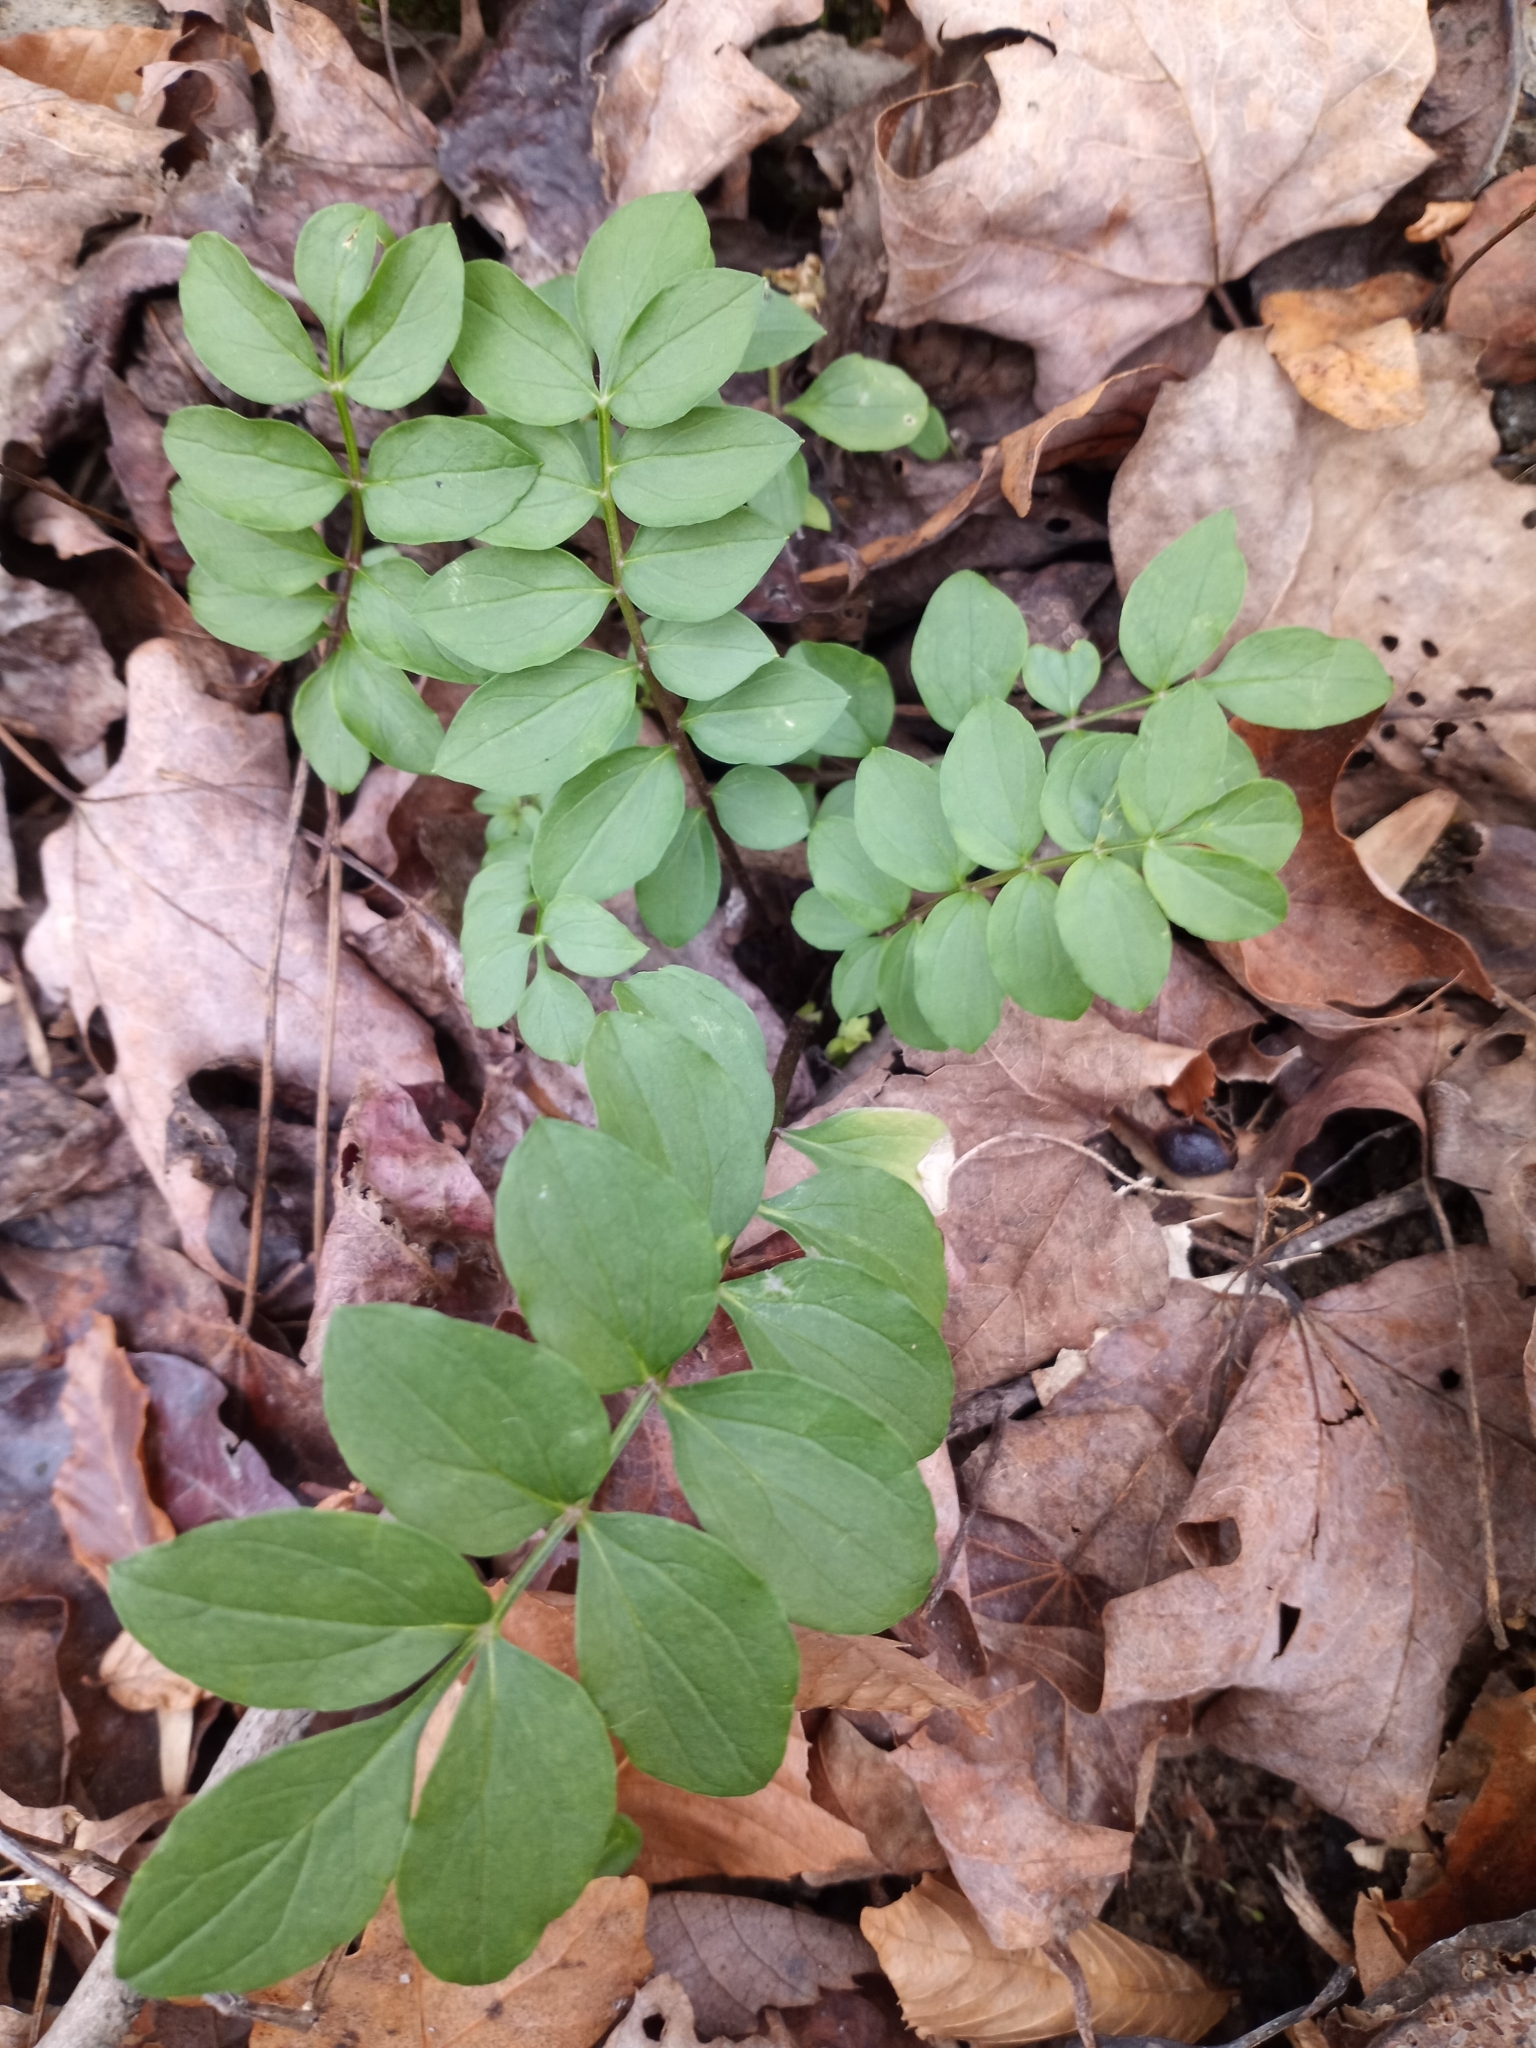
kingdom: Plantae
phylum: Tracheophyta
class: Magnoliopsida
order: Ericales
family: Polemoniaceae
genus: Polemonium
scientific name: Polemonium reptans
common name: Creeping jacob's-ladder
